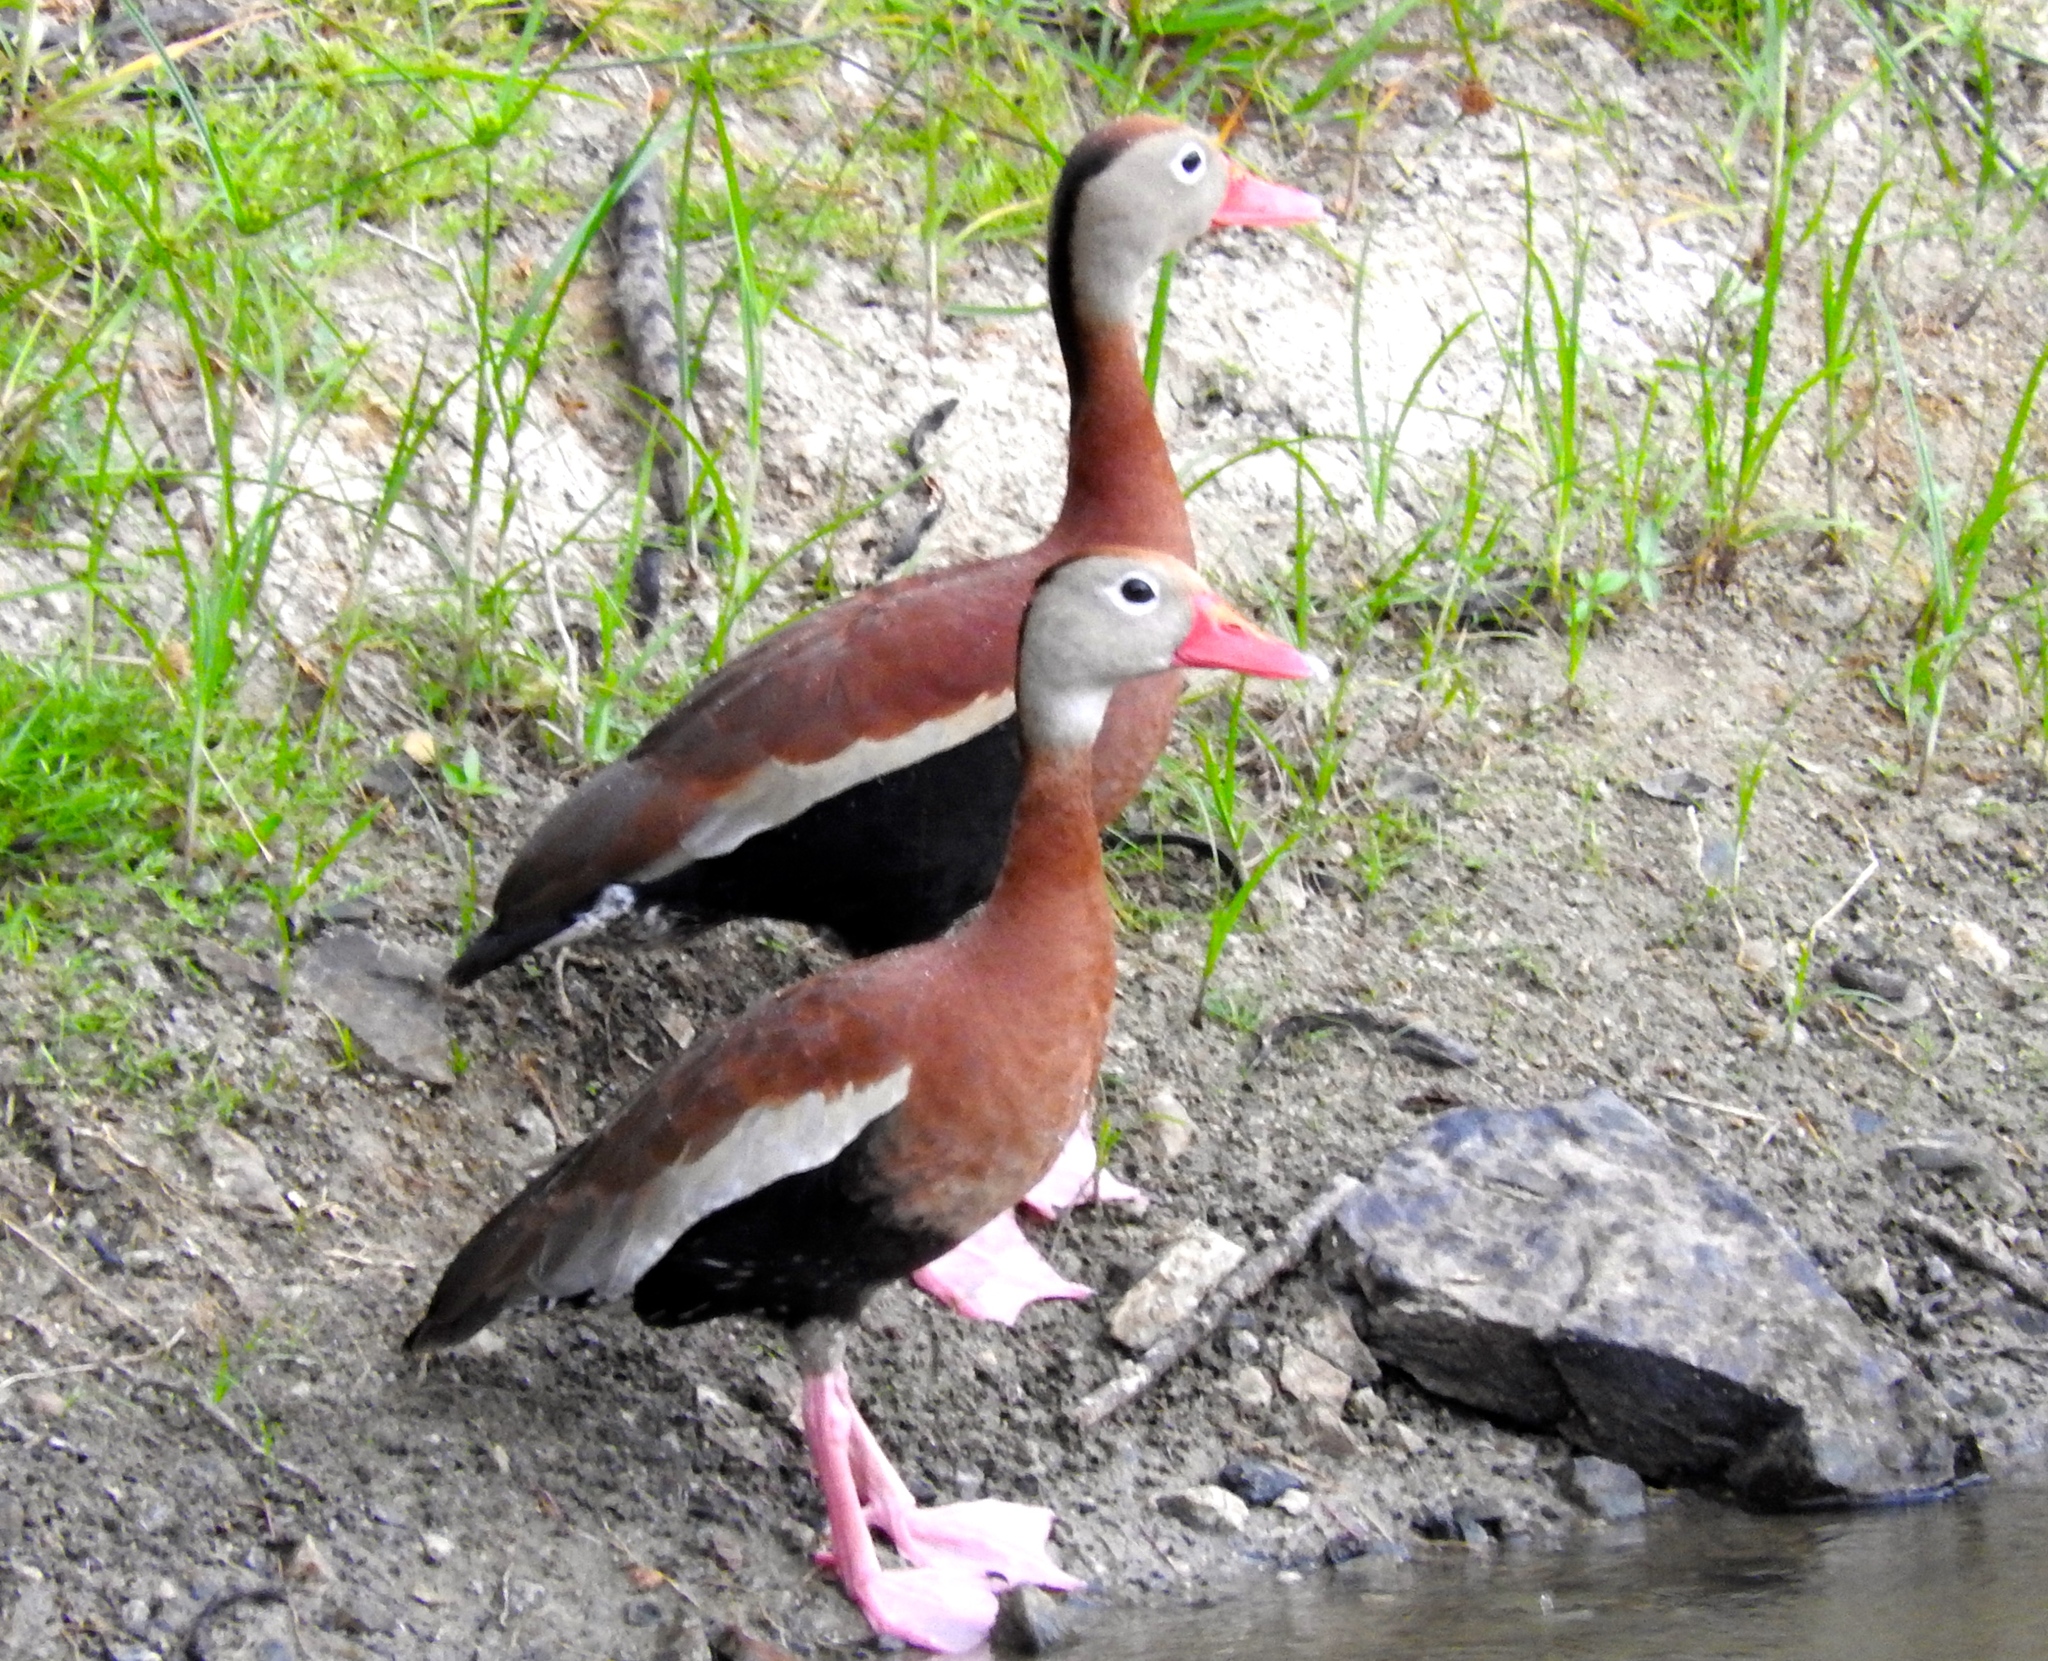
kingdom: Animalia
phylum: Chordata
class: Aves
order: Anseriformes
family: Anatidae
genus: Dendrocygna
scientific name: Dendrocygna autumnalis
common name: Black-bellied whistling duck
